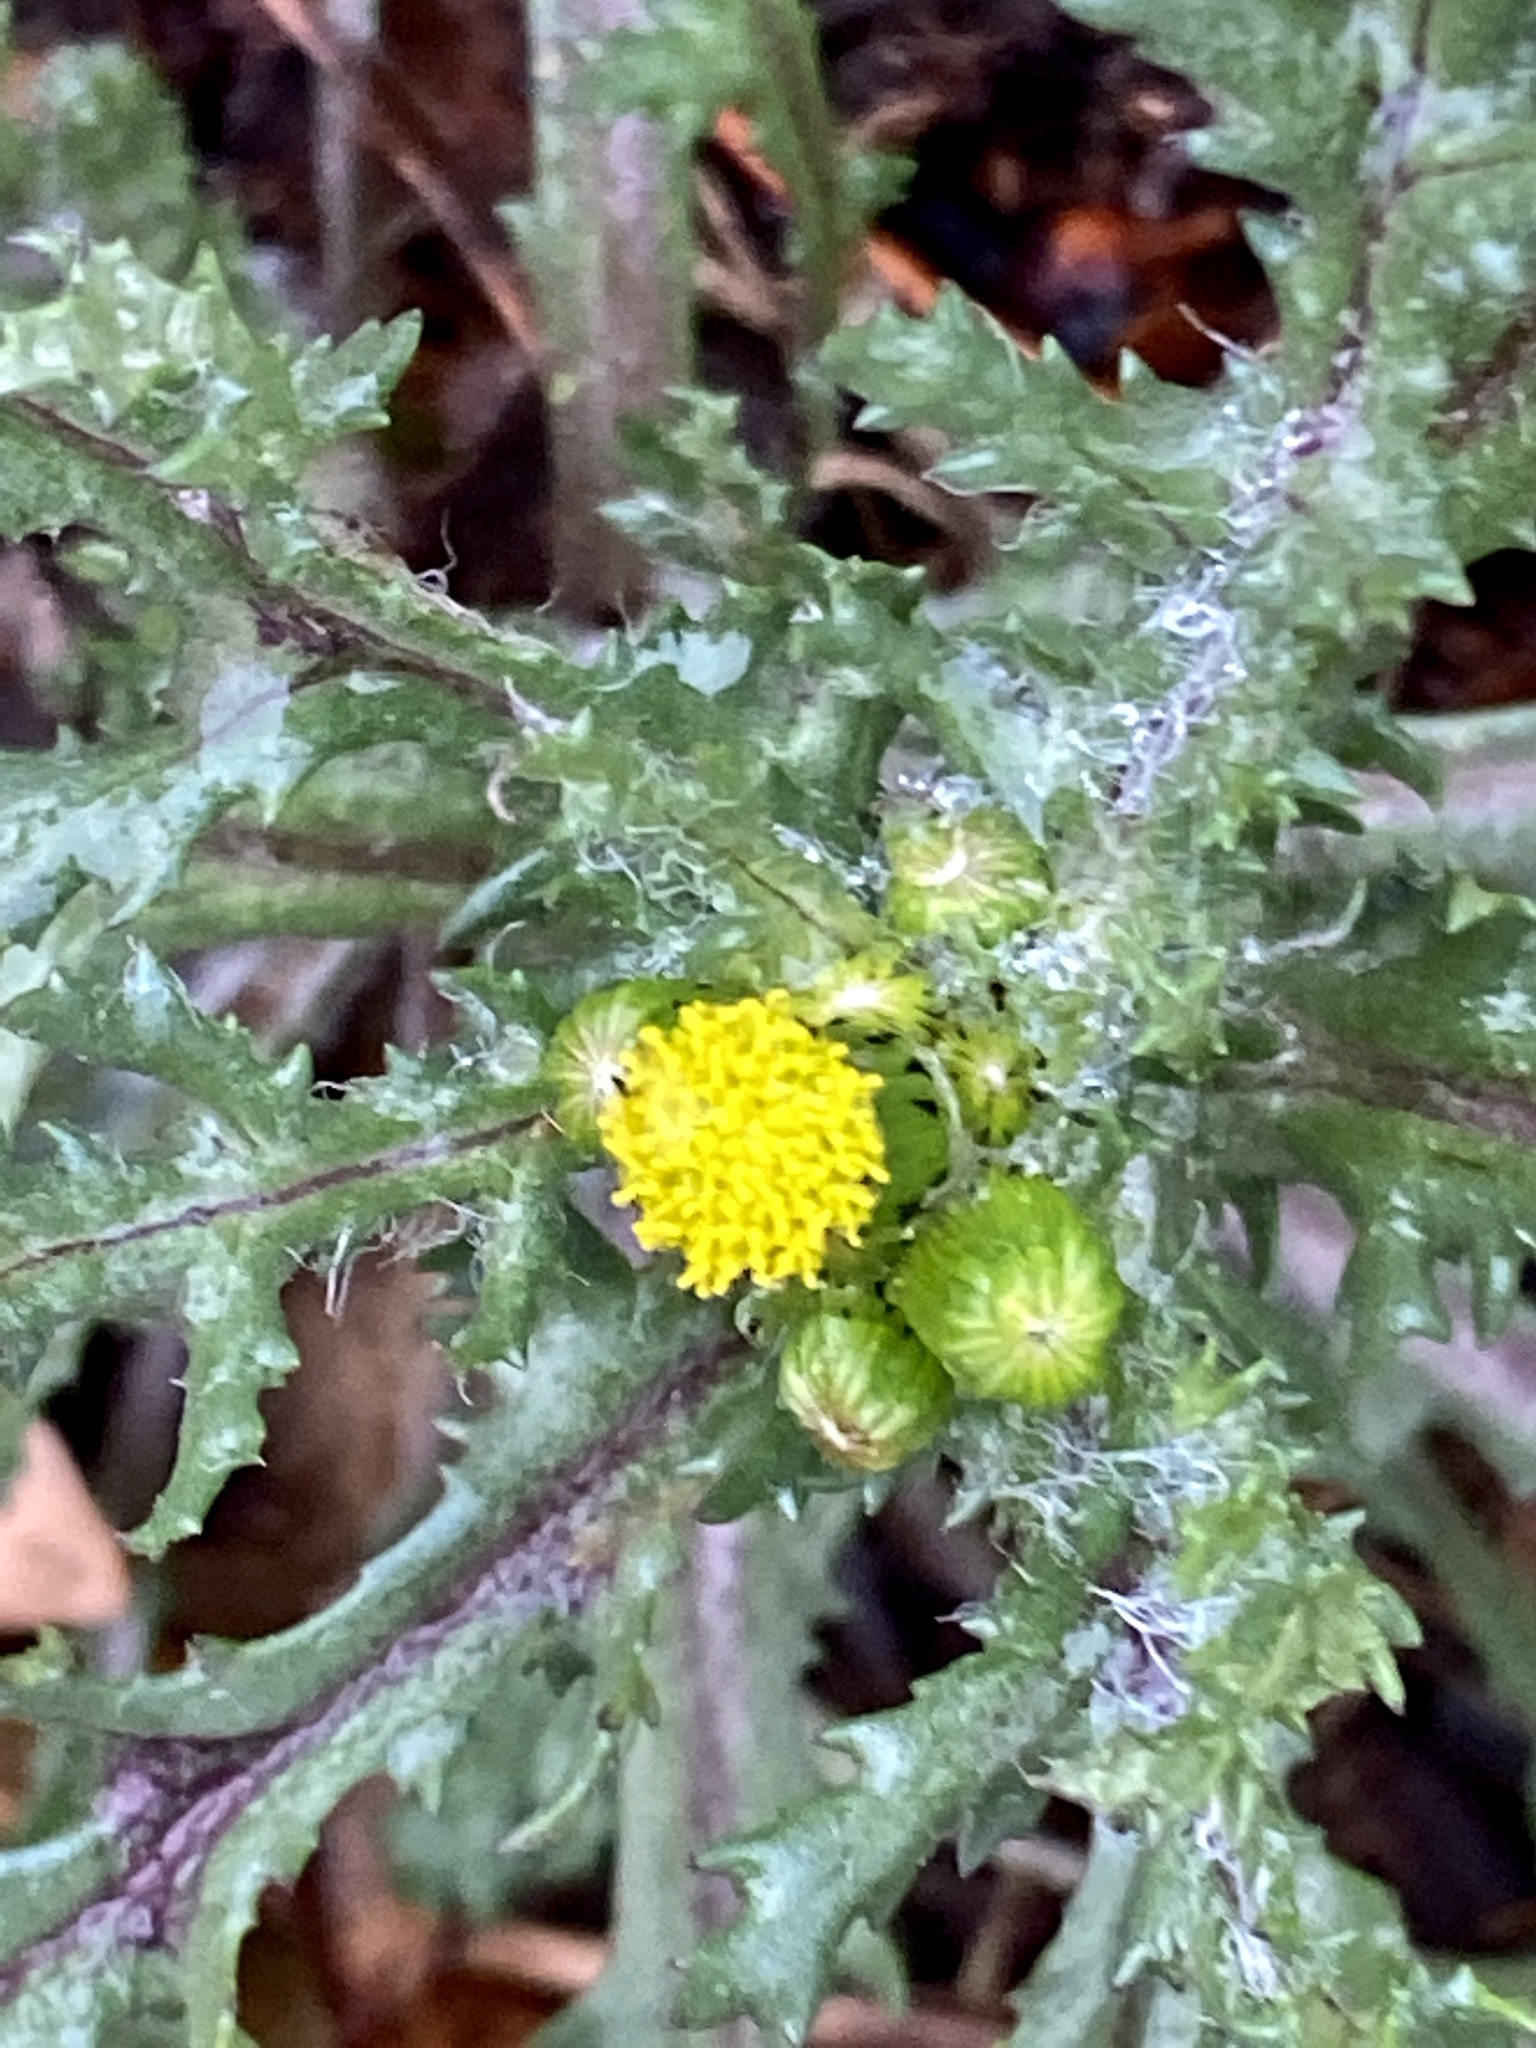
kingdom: Plantae
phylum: Tracheophyta
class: Magnoliopsida
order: Asterales
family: Asteraceae
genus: Senecio
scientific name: Senecio vulgaris
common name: Old-man-in-the-spring
